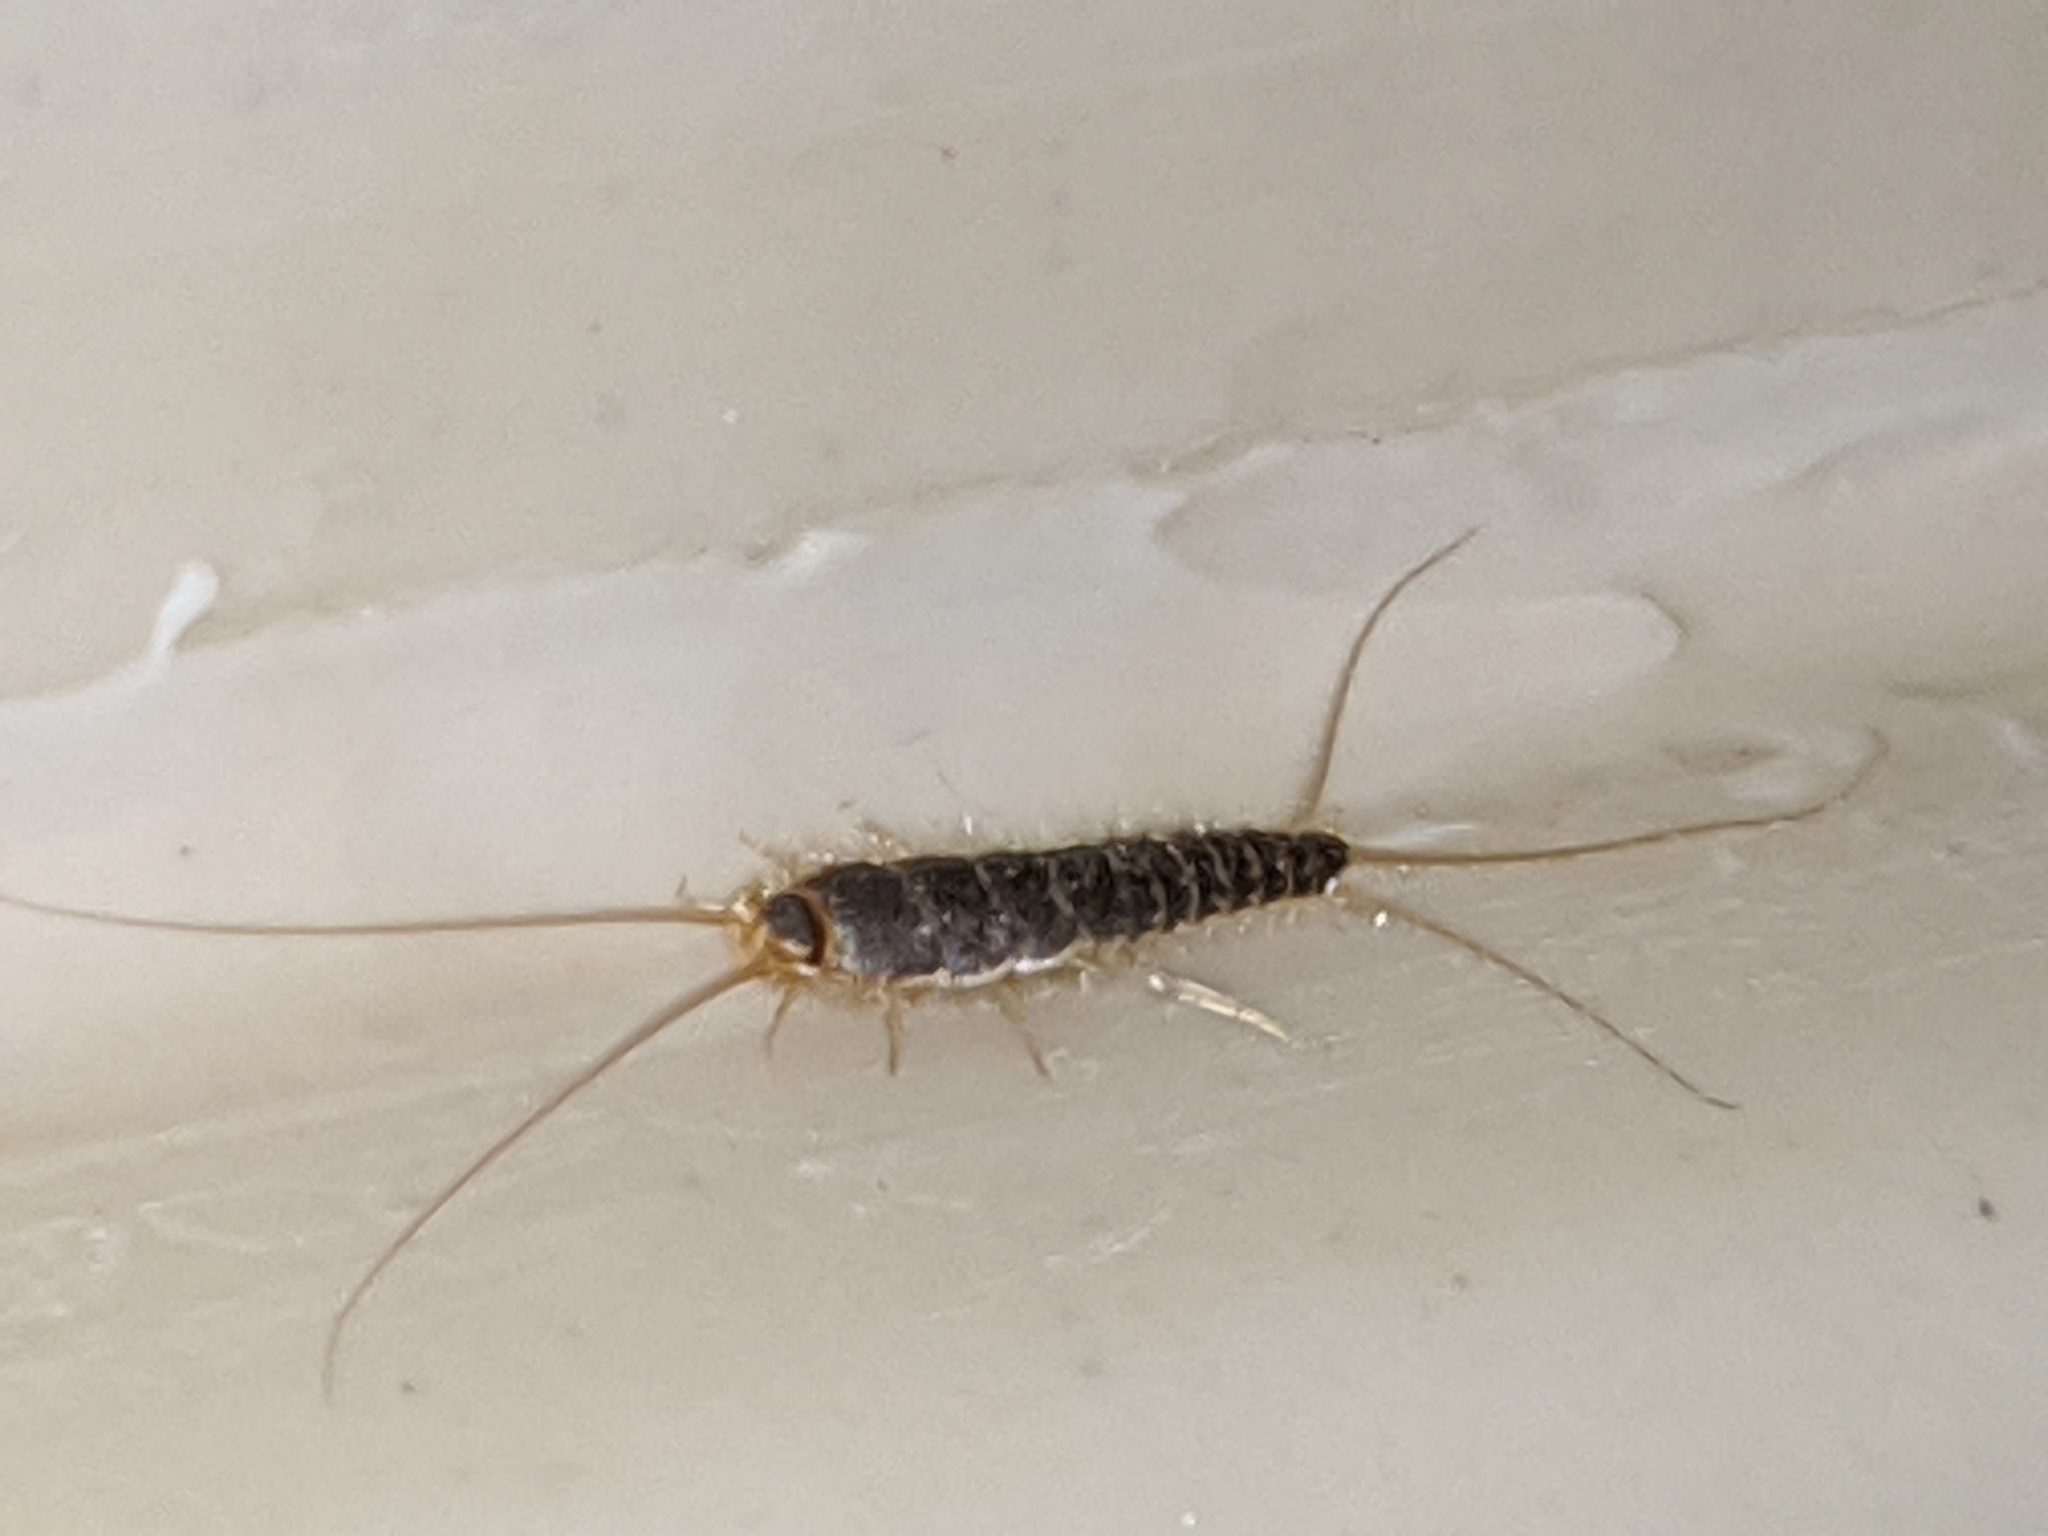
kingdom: Animalia
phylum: Arthropoda
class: Insecta
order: Zygentoma
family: Lepismatidae
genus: Ctenolepisma
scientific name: Ctenolepisma longicaudatum
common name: Silverfish
